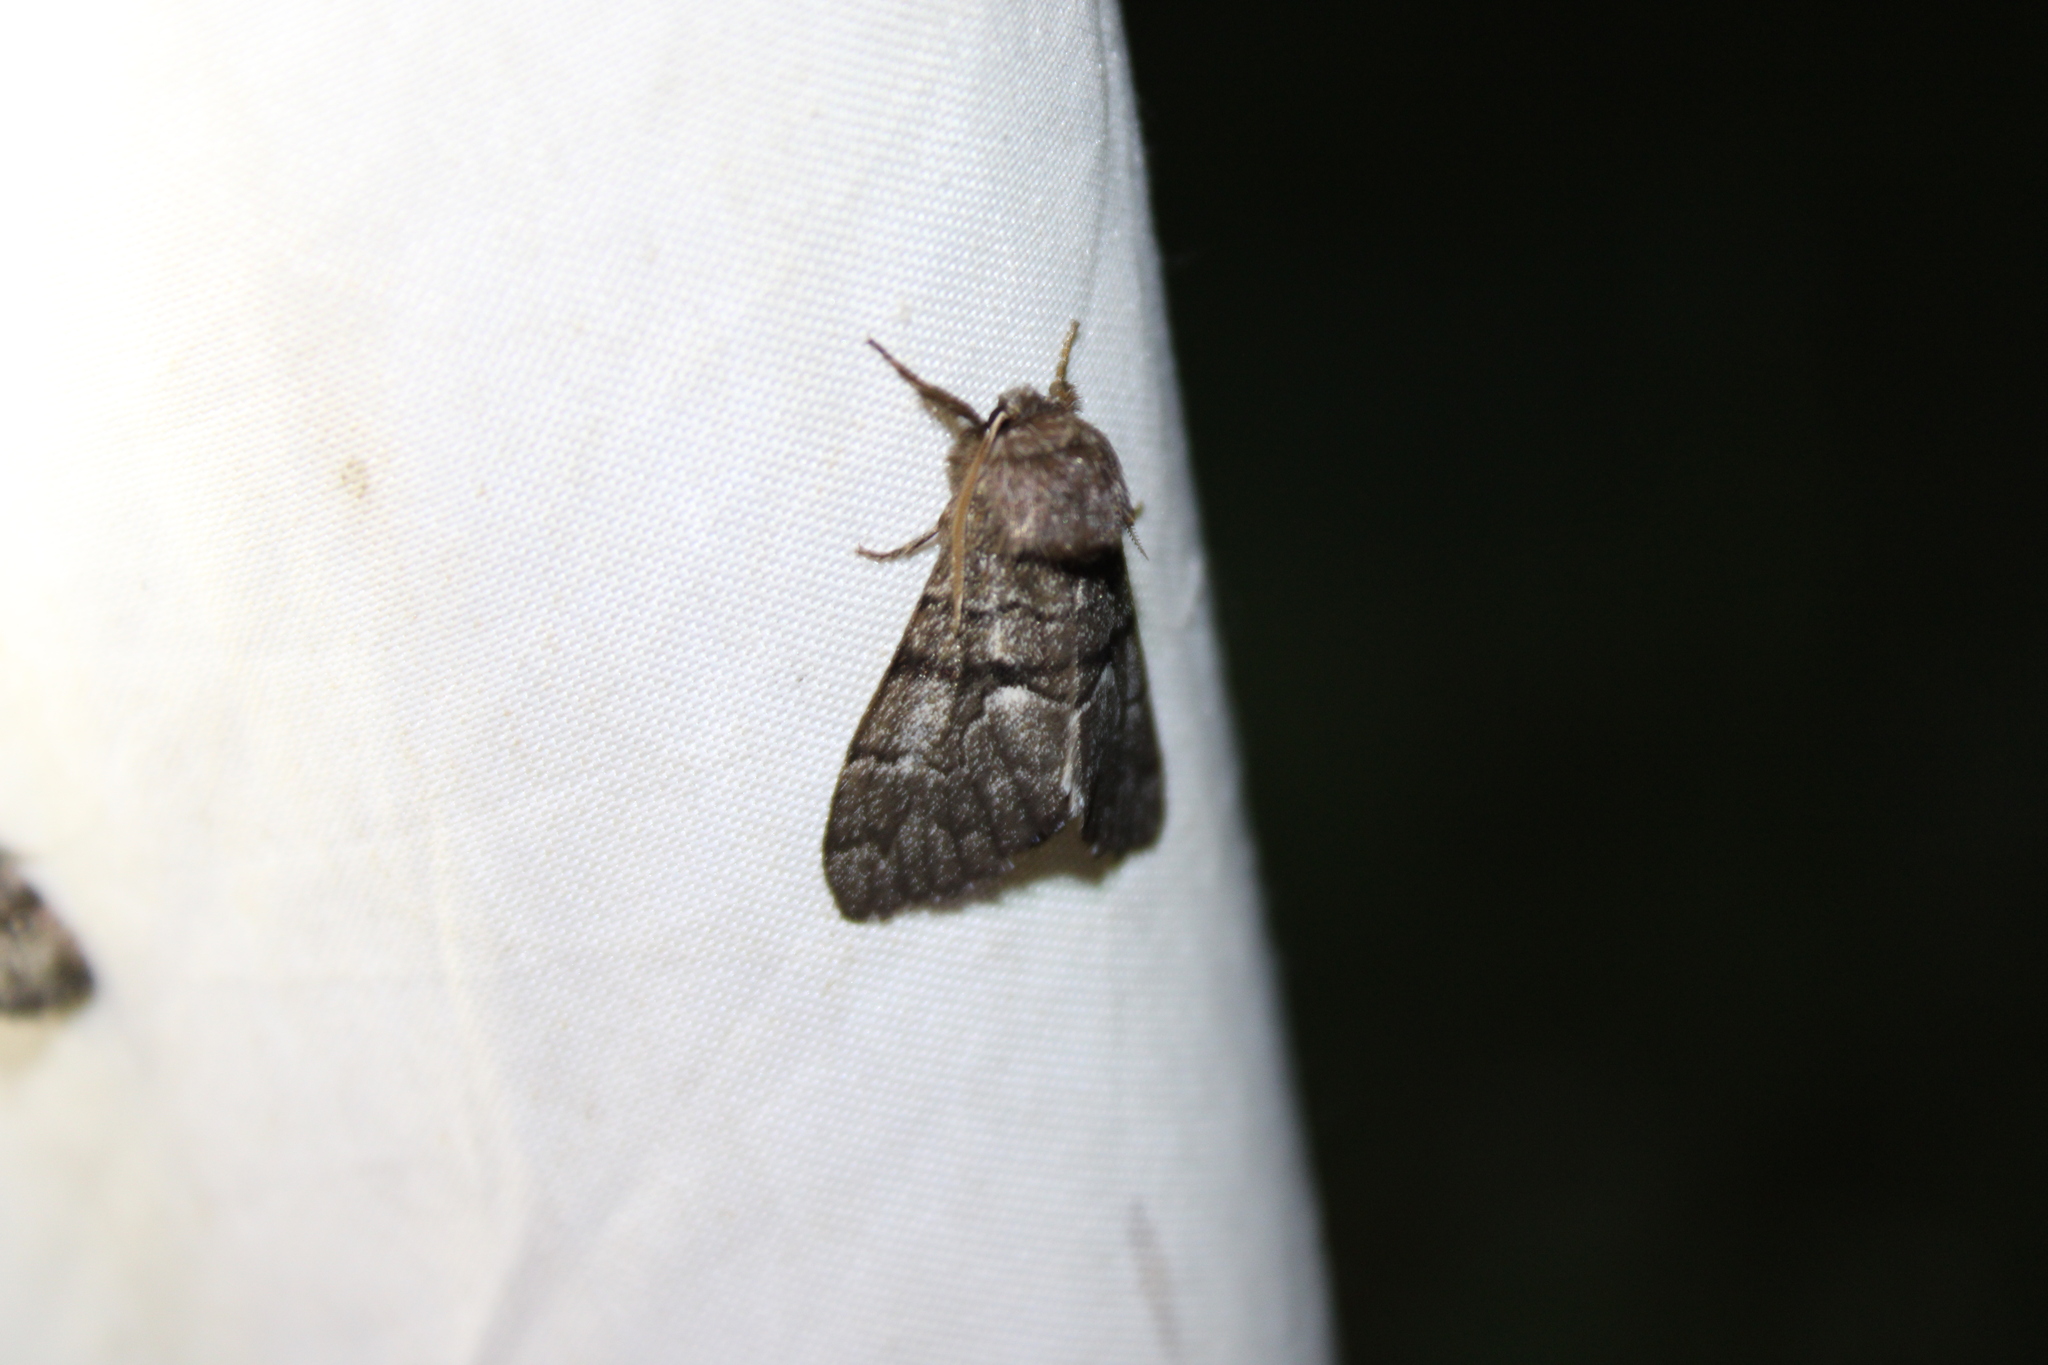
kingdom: Animalia
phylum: Arthropoda
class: Insecta
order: Lepidoptera
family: Noctuidae
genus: Panthea
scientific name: Panthea furcilla
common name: Eastern panthea moth
